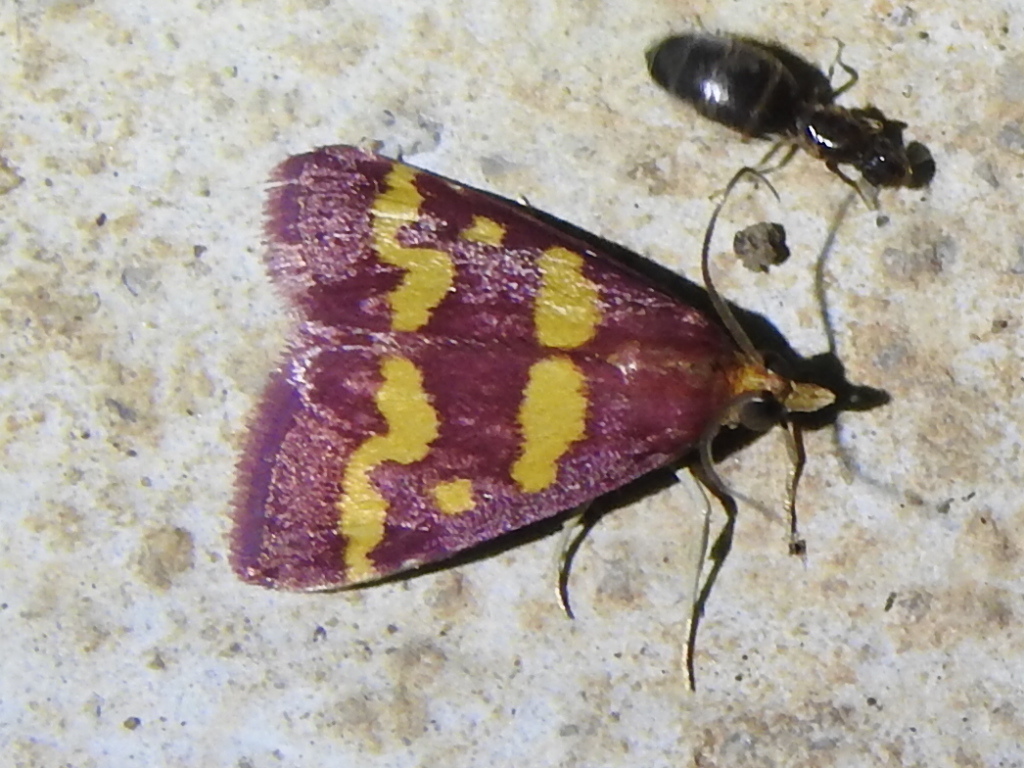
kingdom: Animalia
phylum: Arthropoda
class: Insecta
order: Lepidoptera
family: Crambidae
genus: Pyrausta
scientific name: Pyrausta tyralis
